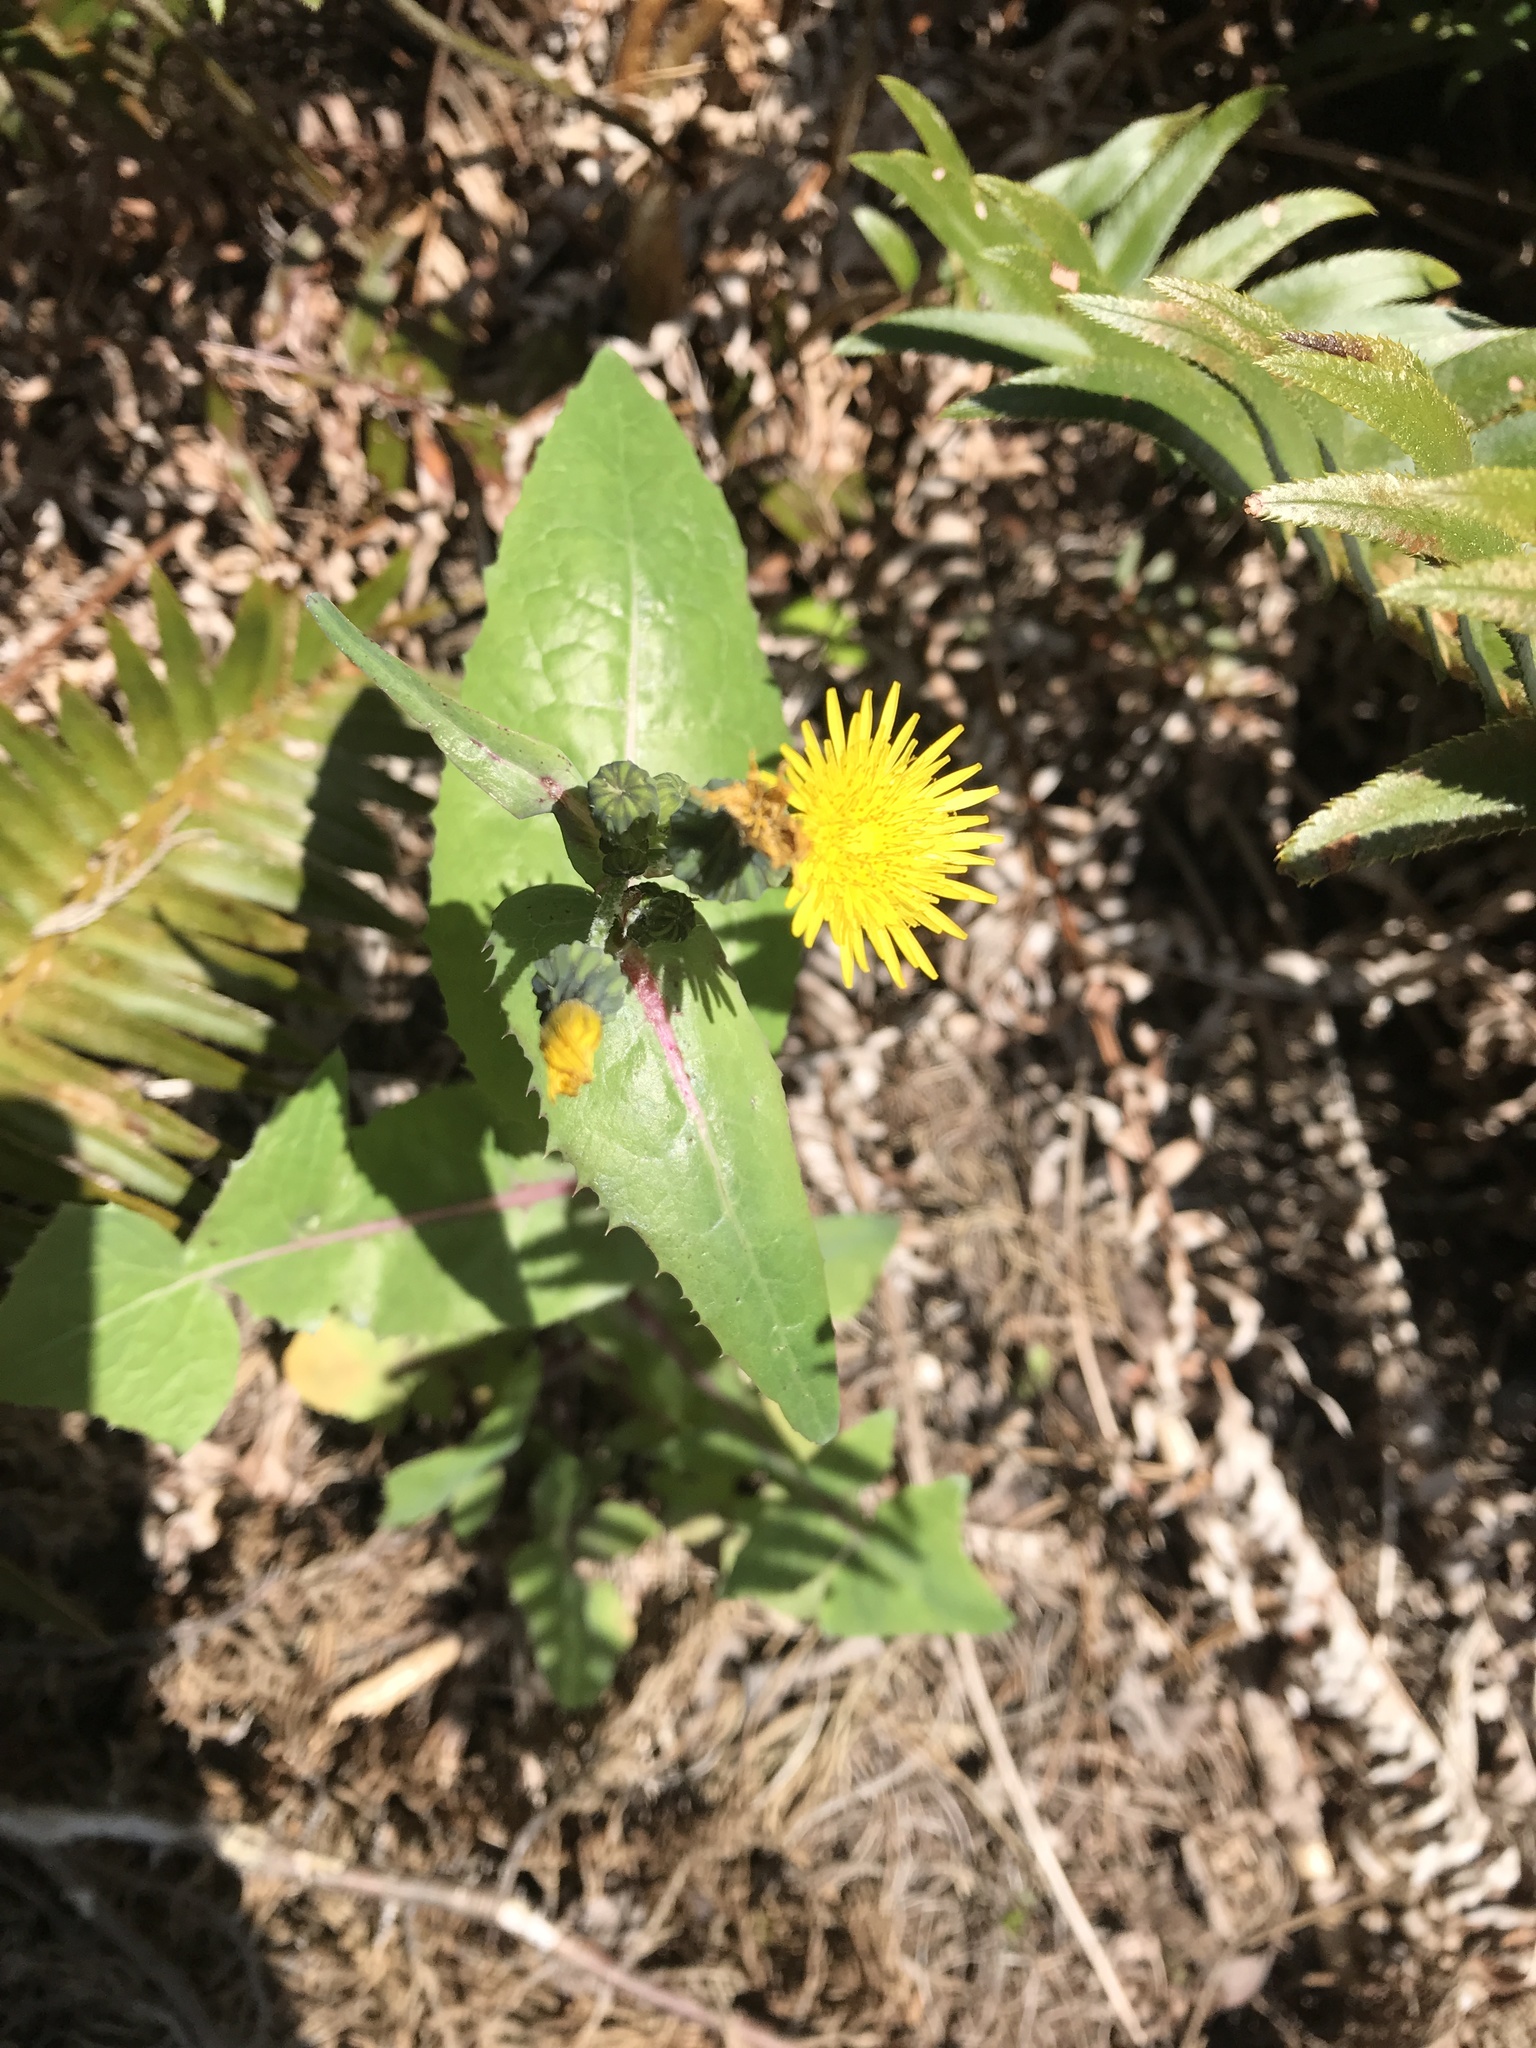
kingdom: Plantae
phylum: Tracheophyta
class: Magnoliopsida
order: Asterales
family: Asteraceae
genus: Sonchus
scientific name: Sonchus oleraceus
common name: Common sowthistle
